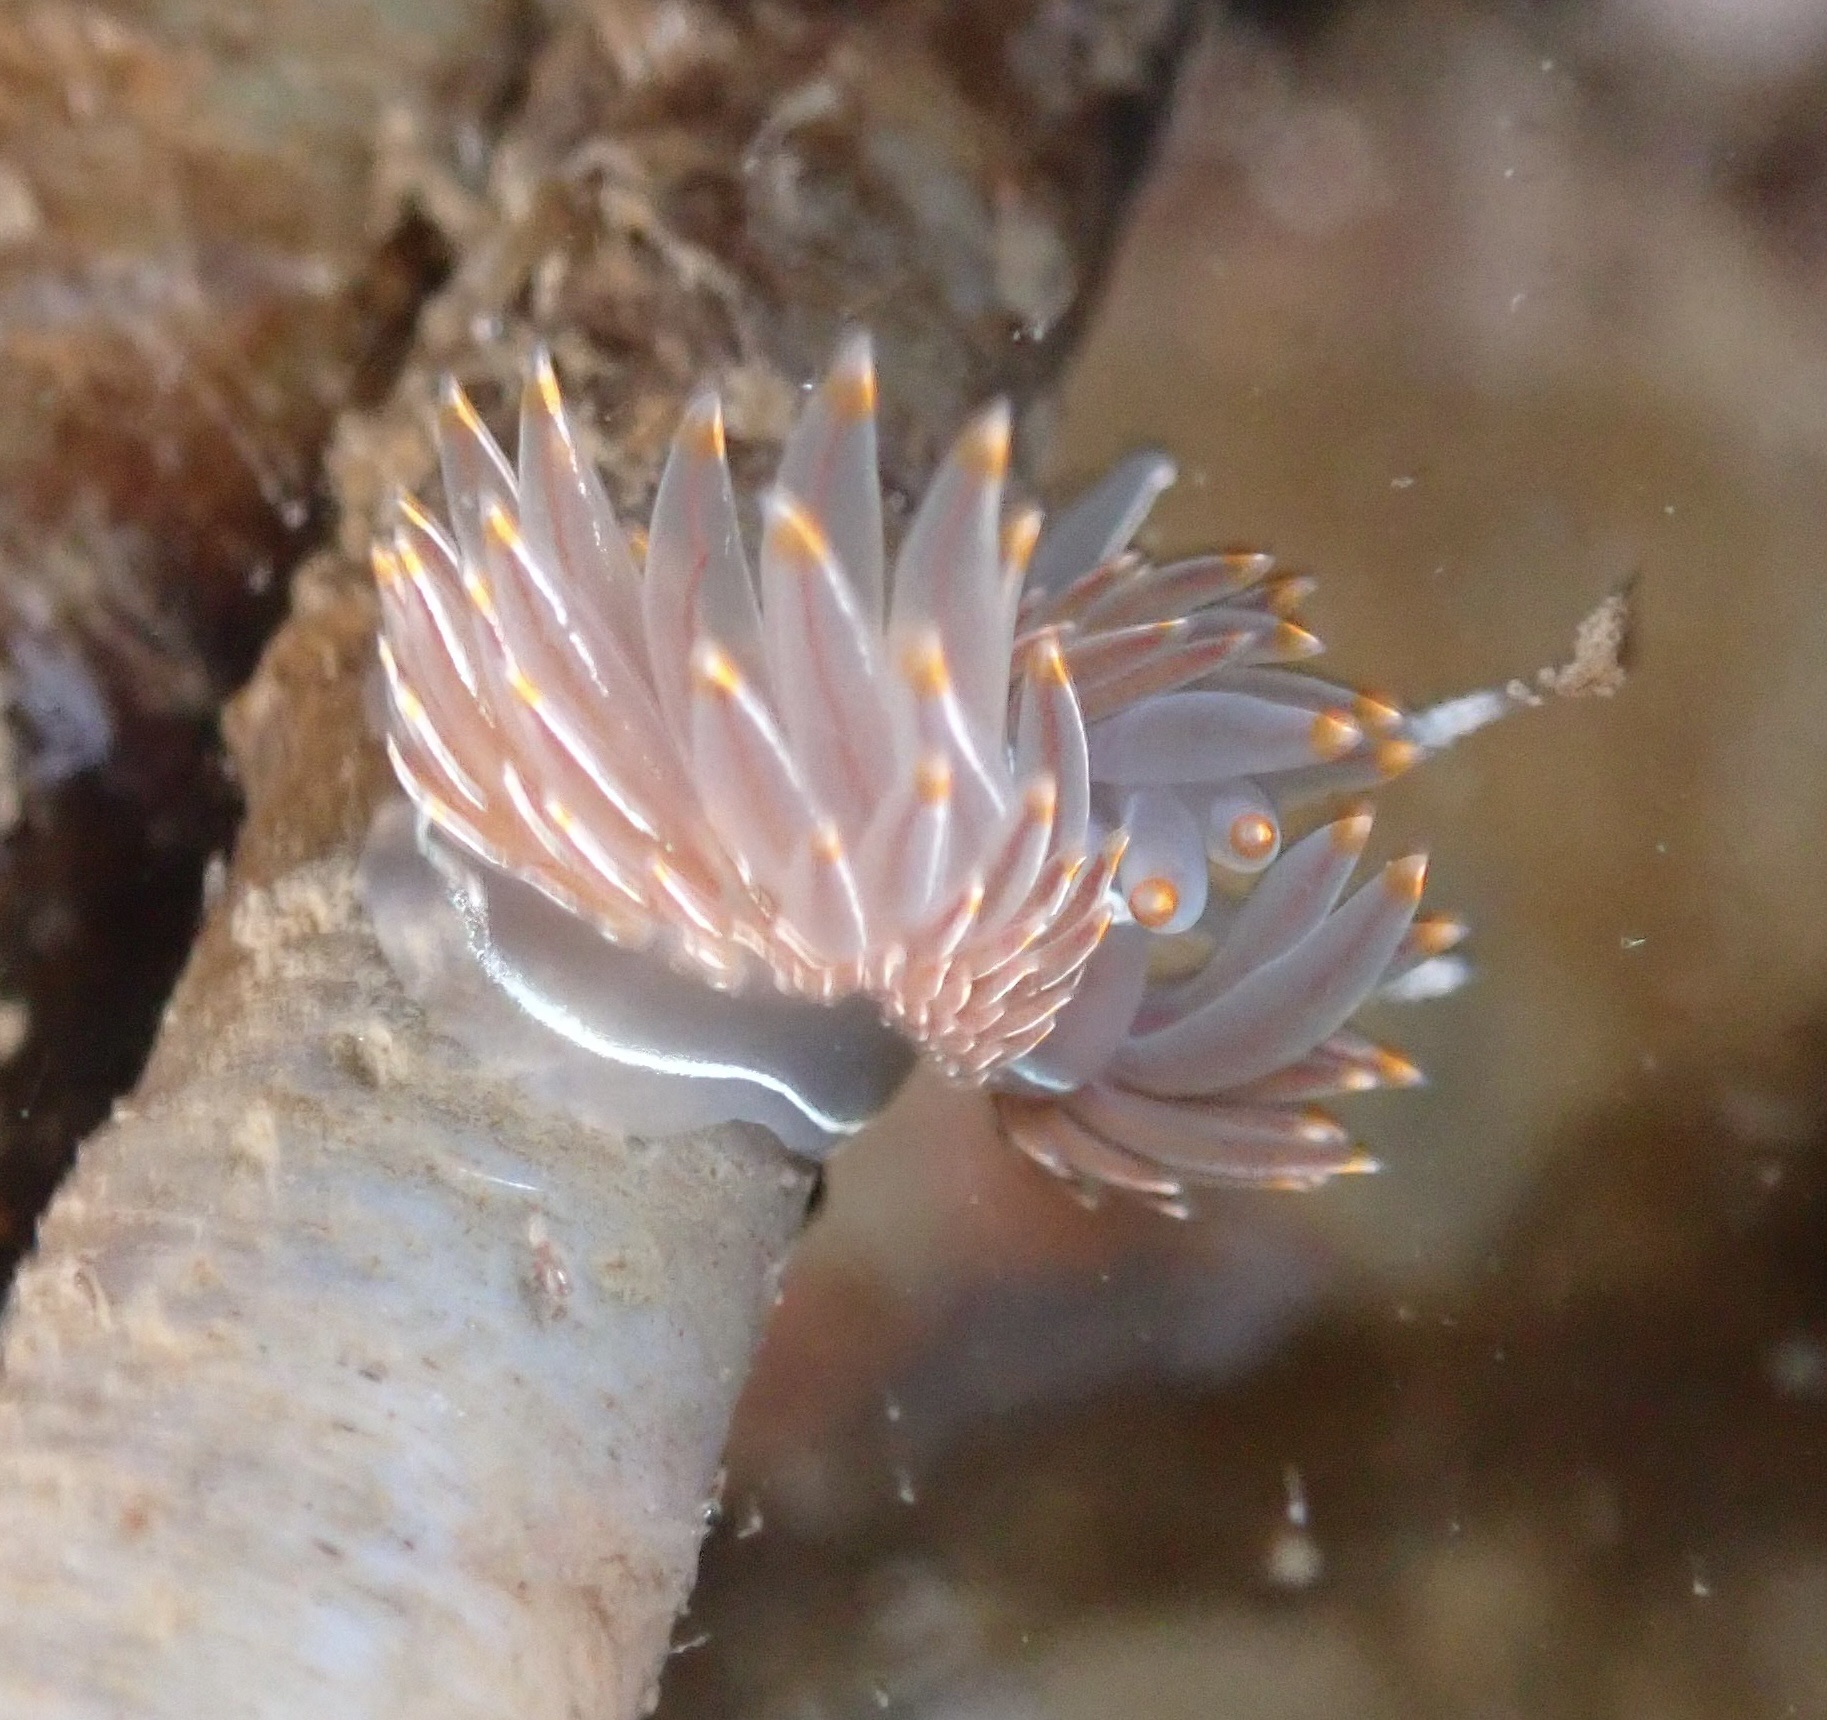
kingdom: Animalia
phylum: Mollusca
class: Gastropoda
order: Nudibranchia
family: Myrrhinidae
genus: Hermissenda
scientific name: Hermissenda crassicornis
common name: Hermissenda
